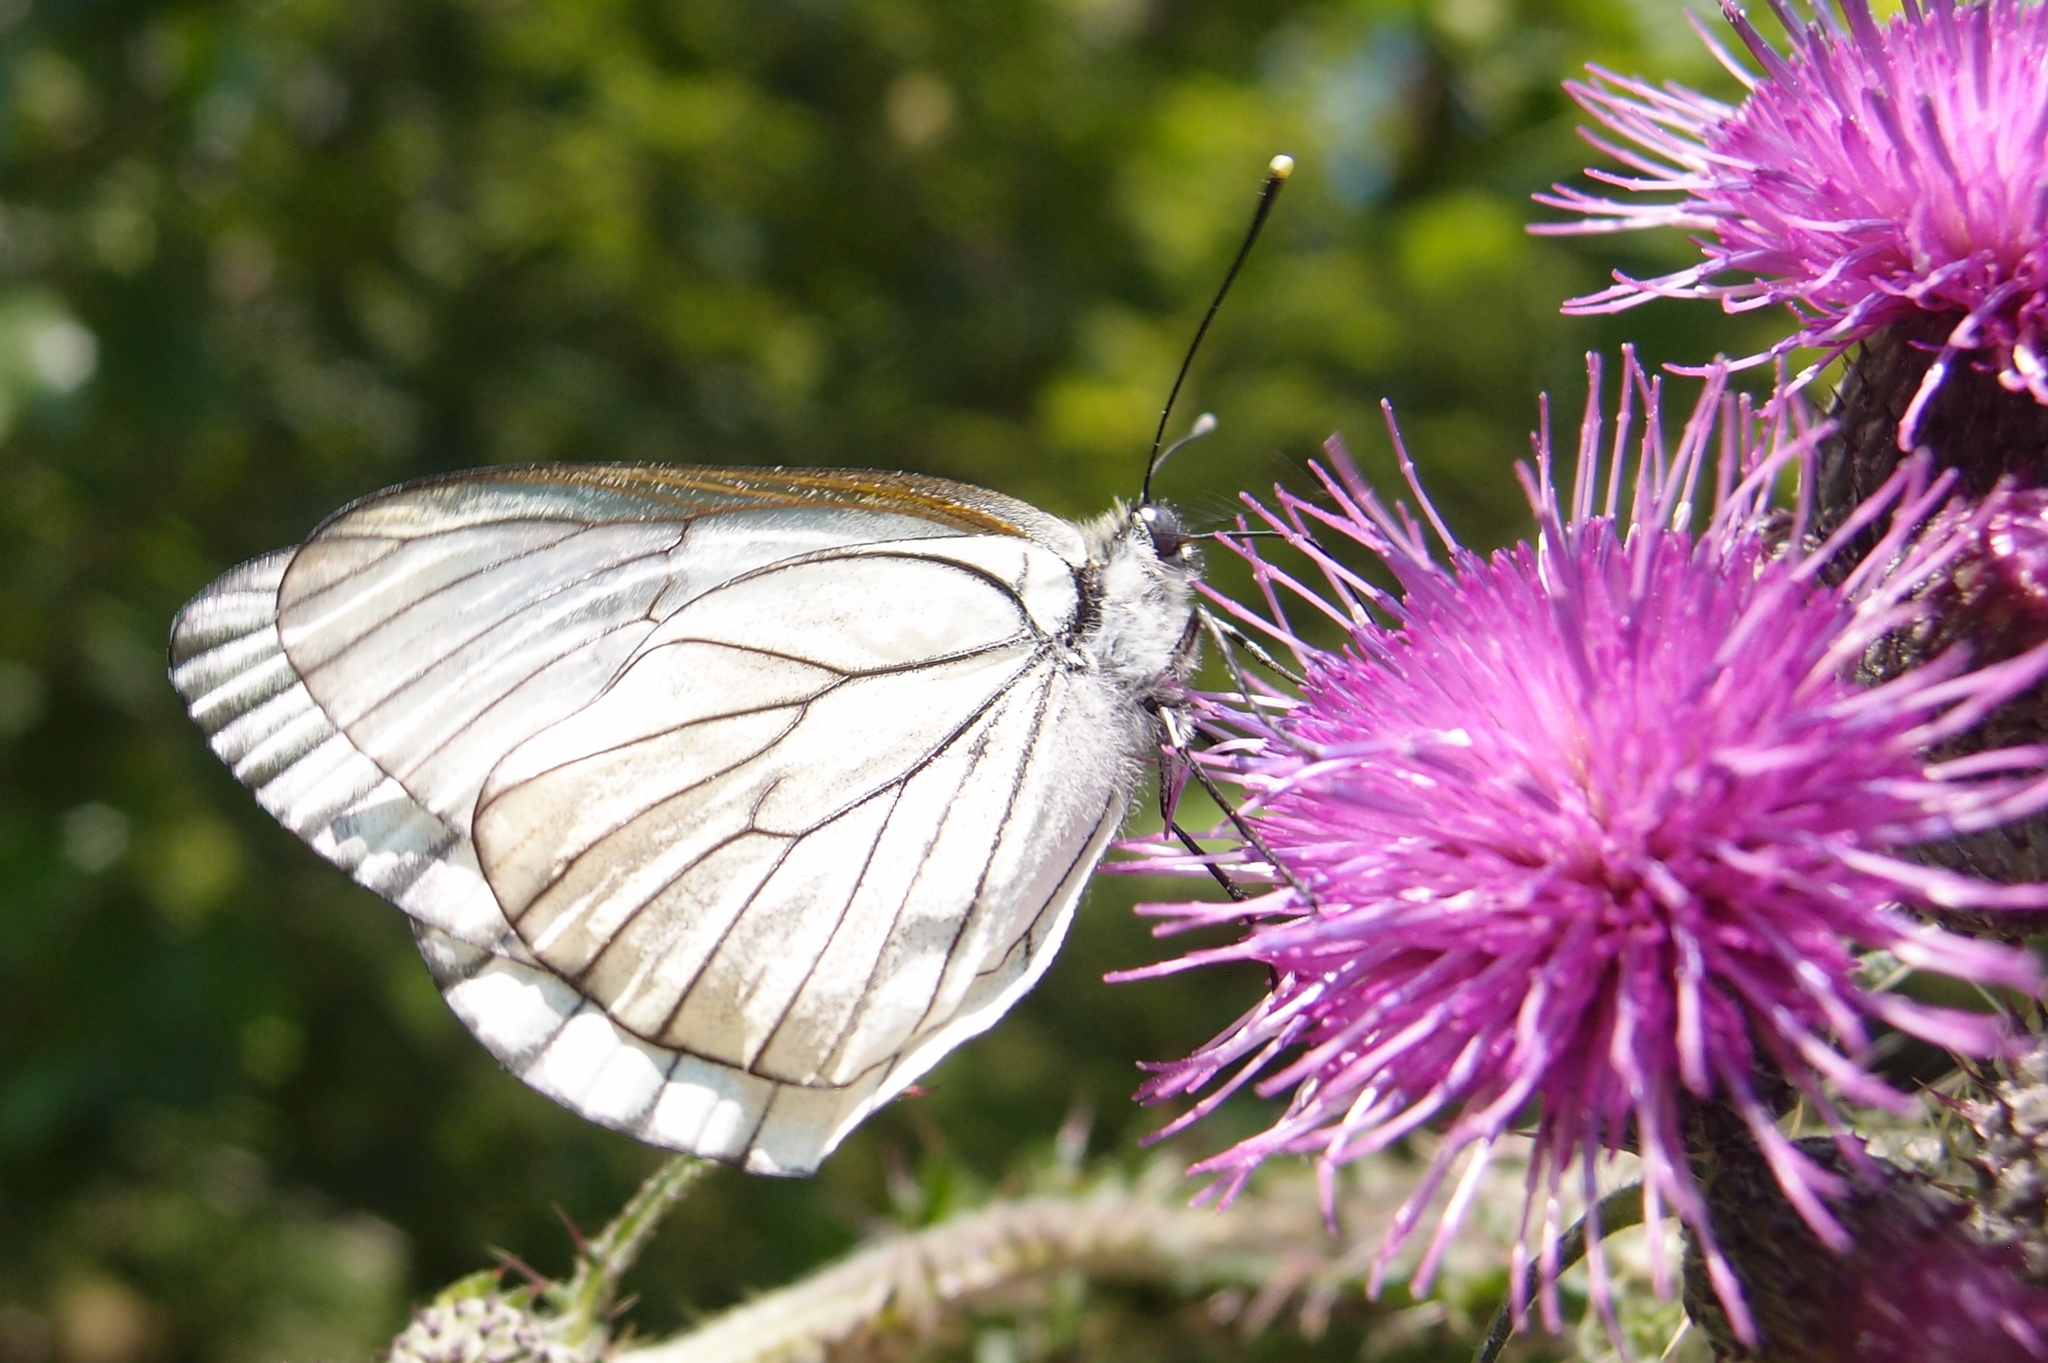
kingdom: Animalia
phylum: Arthropoda
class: Insecta
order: Lepidoptera
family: Pieridae
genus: Aporia
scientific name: Aporia crataegi
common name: Black-veined white
